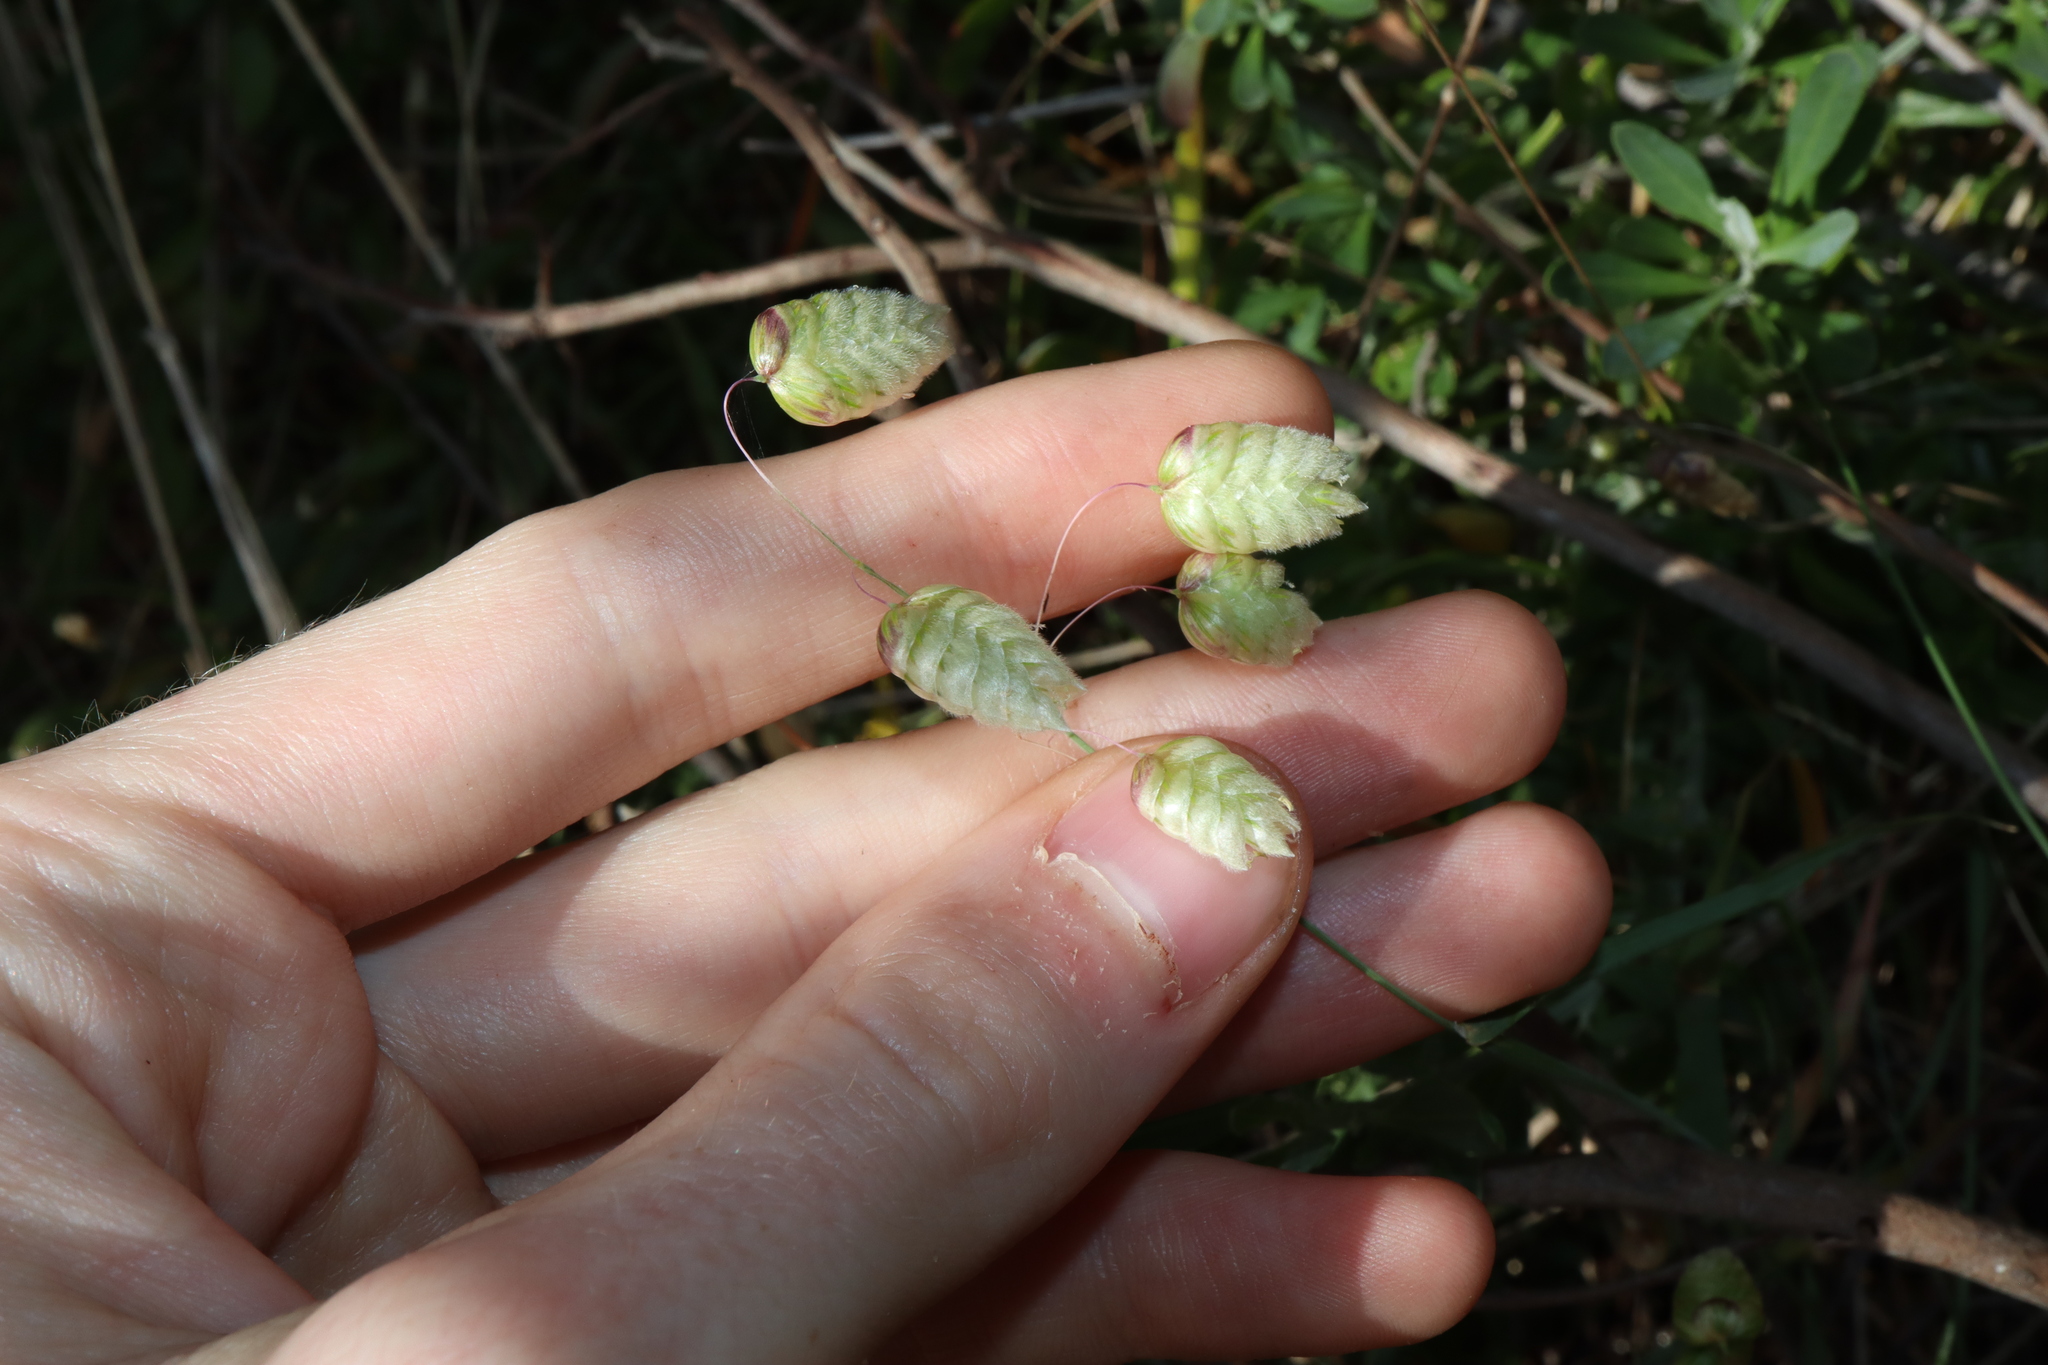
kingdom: Plantae
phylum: Tracheophyta
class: Liliopsida
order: Poales
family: Poaceae
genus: Briza
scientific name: Briza maxima
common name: Big quakinggrass
